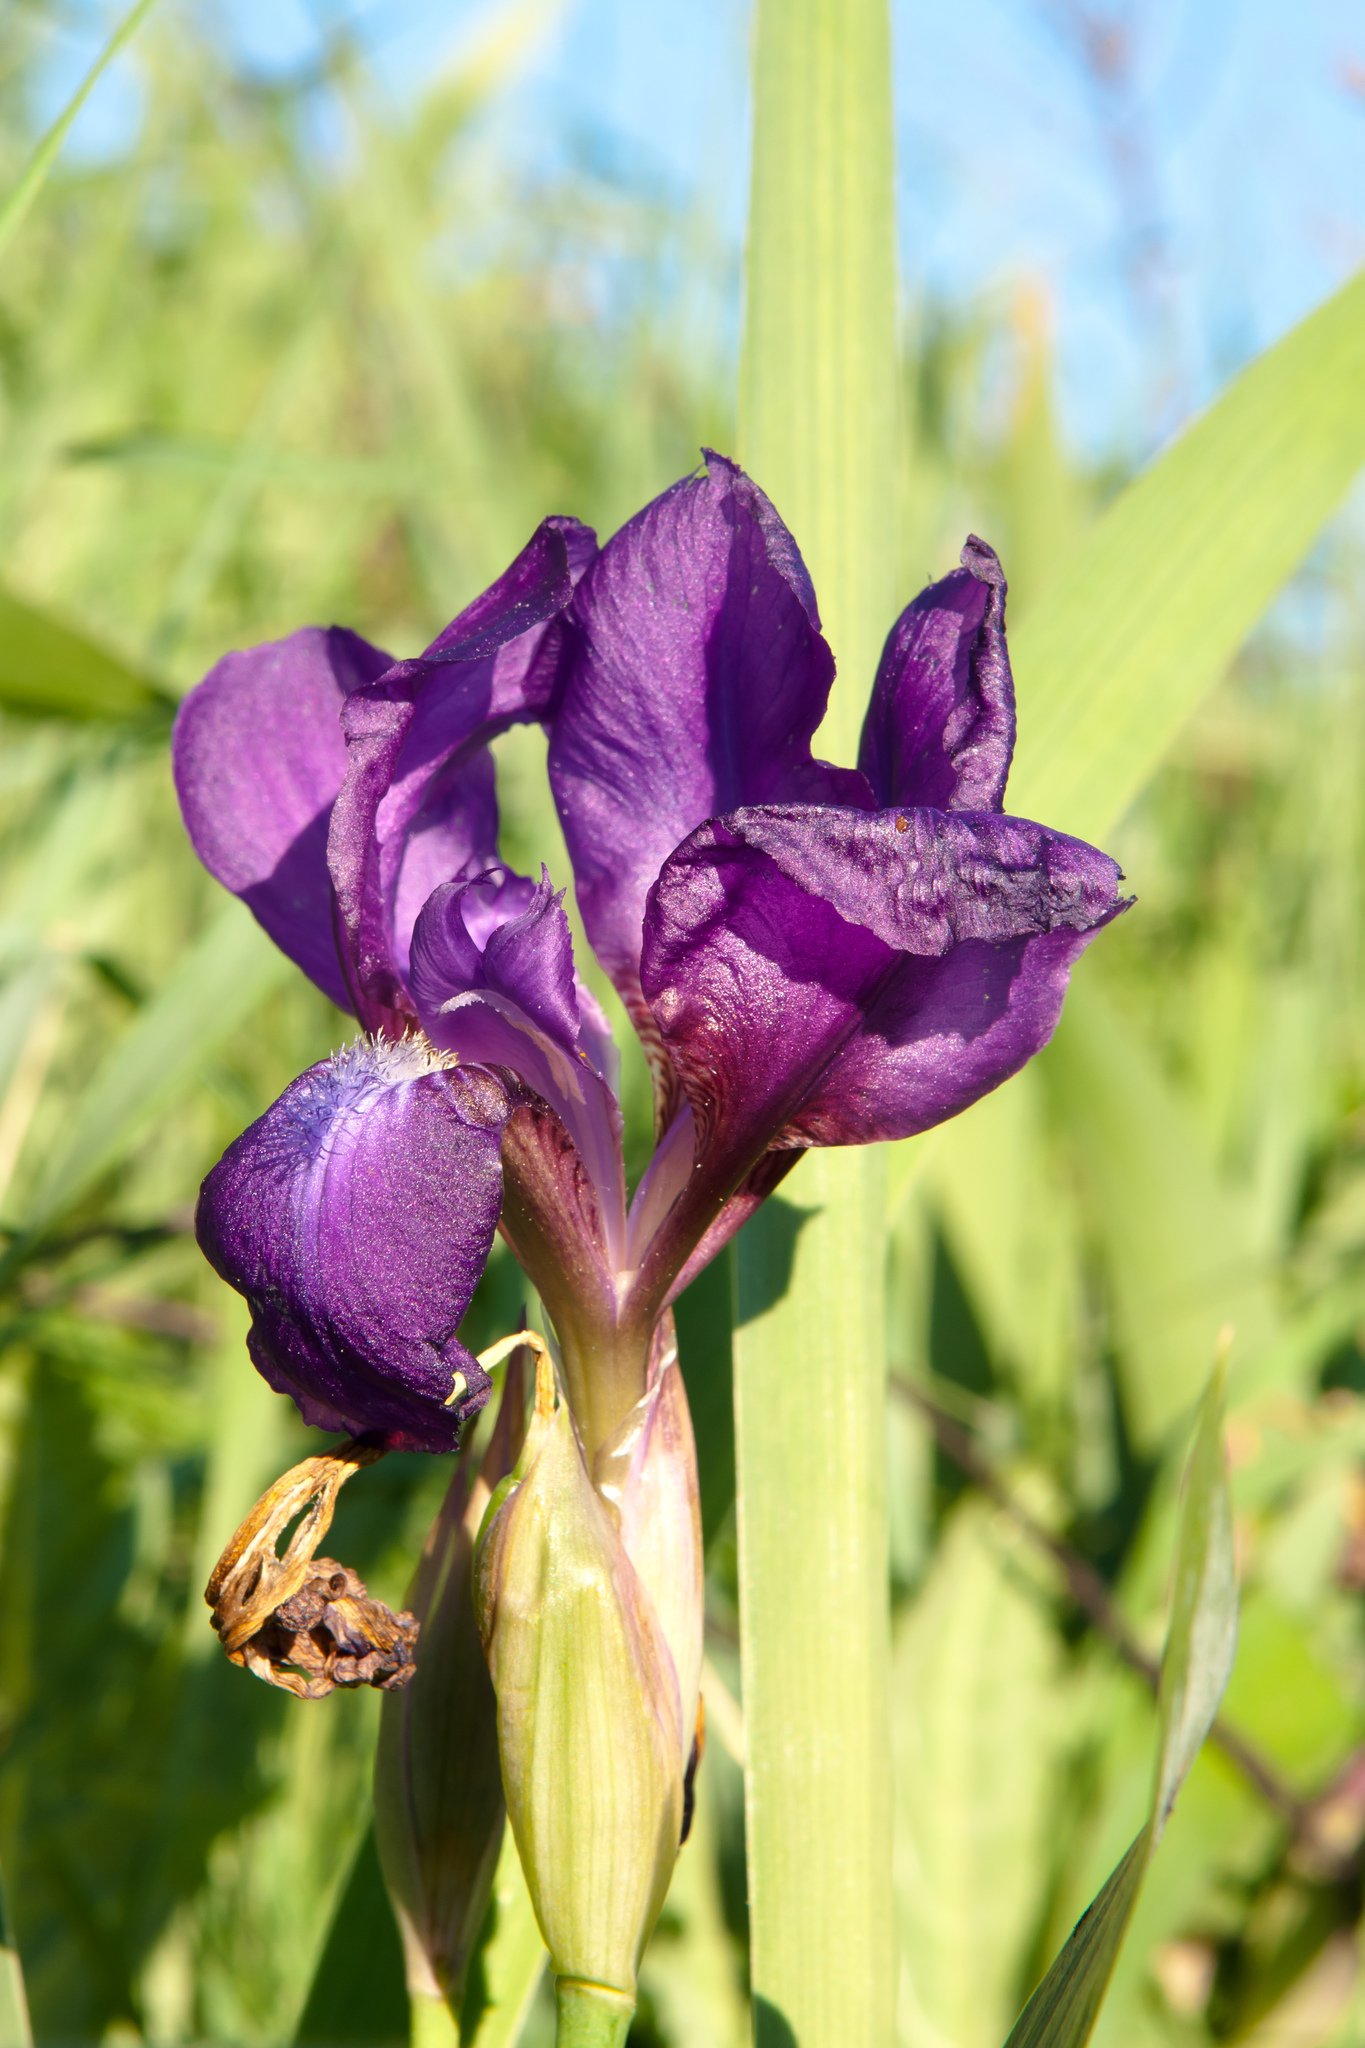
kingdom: Plantae
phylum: Tracheophyta
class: Liliopsida
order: Asparagales
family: Iridaceae
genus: Iris
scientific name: Iris aphylla
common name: Stool iris
